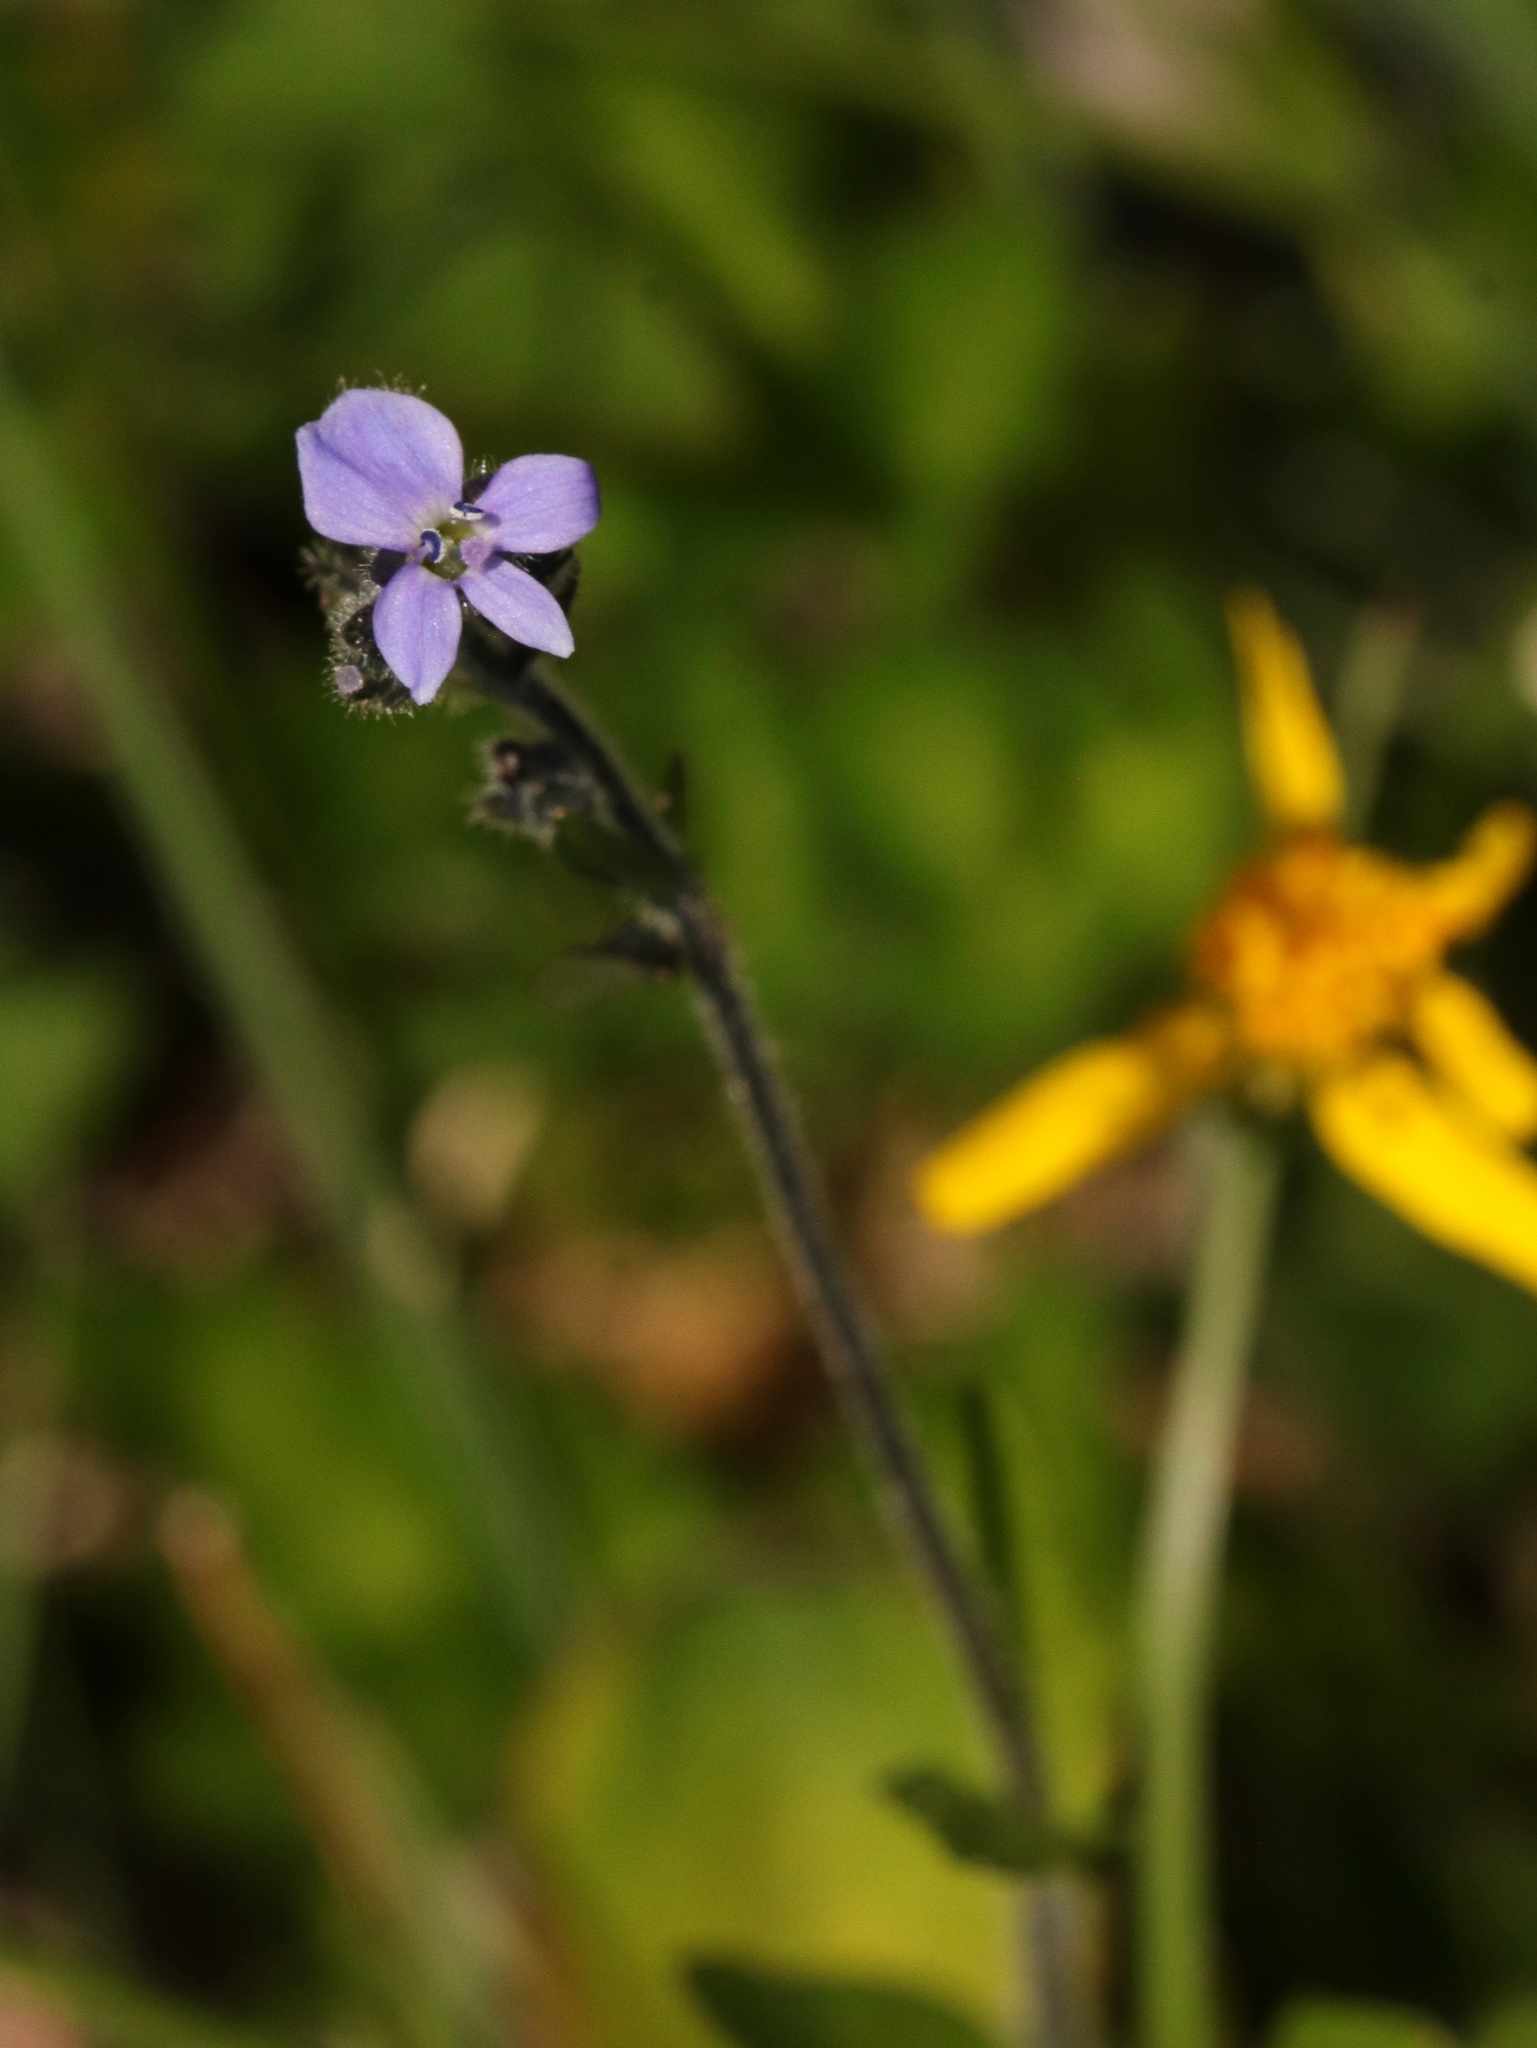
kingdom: Plantae
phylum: Tracheophyta
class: Magnoliopsida
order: Lamiales
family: Plantaginaceae
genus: Veronica
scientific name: Veronica wormskjoldii
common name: American alpine speedwell
